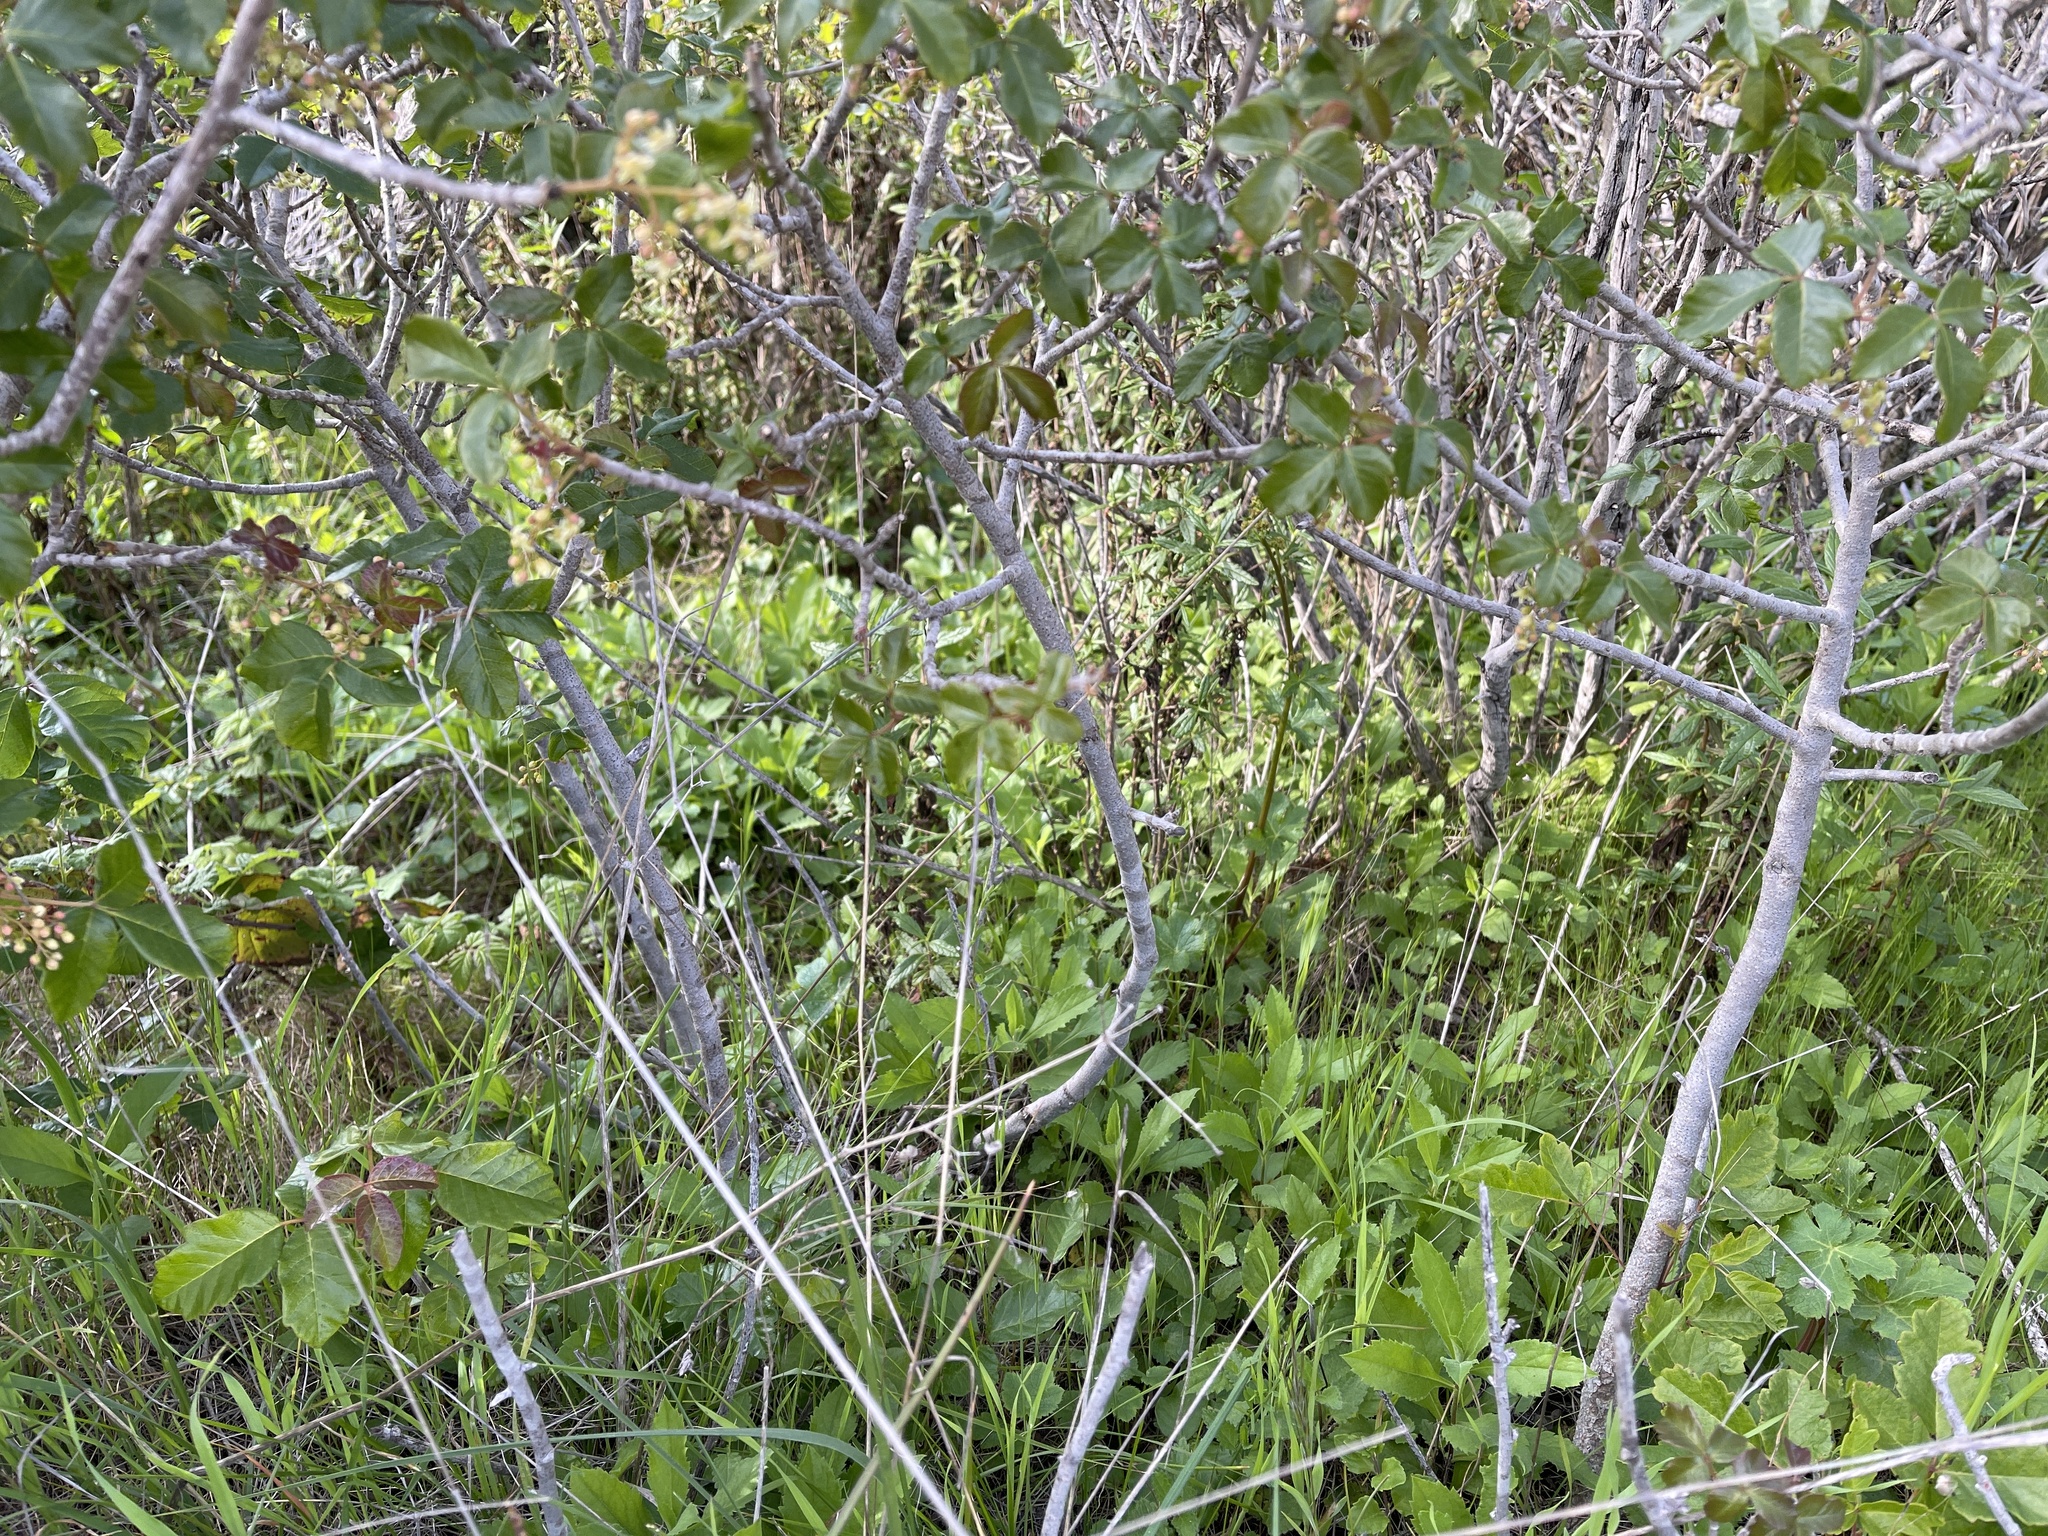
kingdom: Plantae
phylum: Tracheophyta
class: Magnoliopsida
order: Asterales
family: Asteraceae
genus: Eurybia
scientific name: Eurybia radulina
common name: Rough-leaved aster
